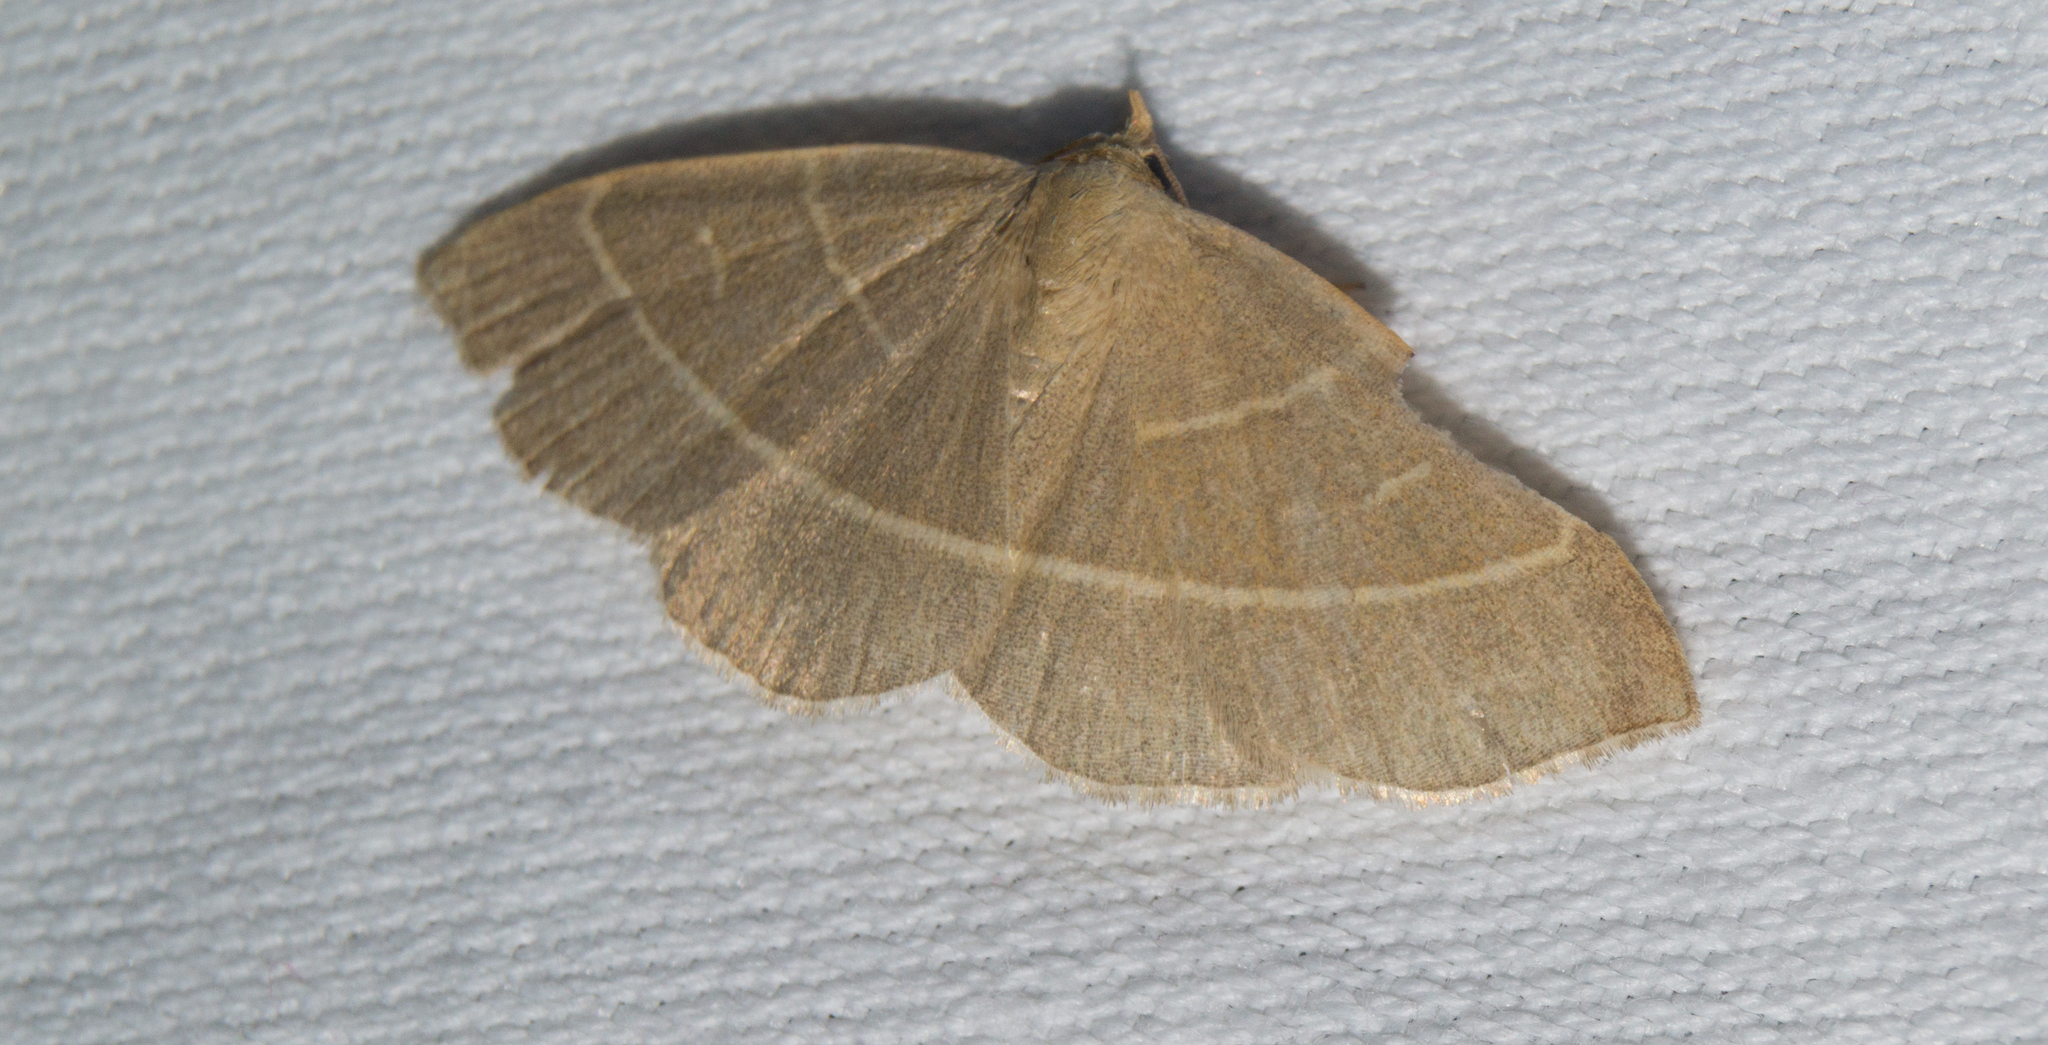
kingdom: Animalia
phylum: Arthropoda
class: Insecta
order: Lepidoptera
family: Erebidae
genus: Trisateles
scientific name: Trisateles emortualis
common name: Olive crescent
